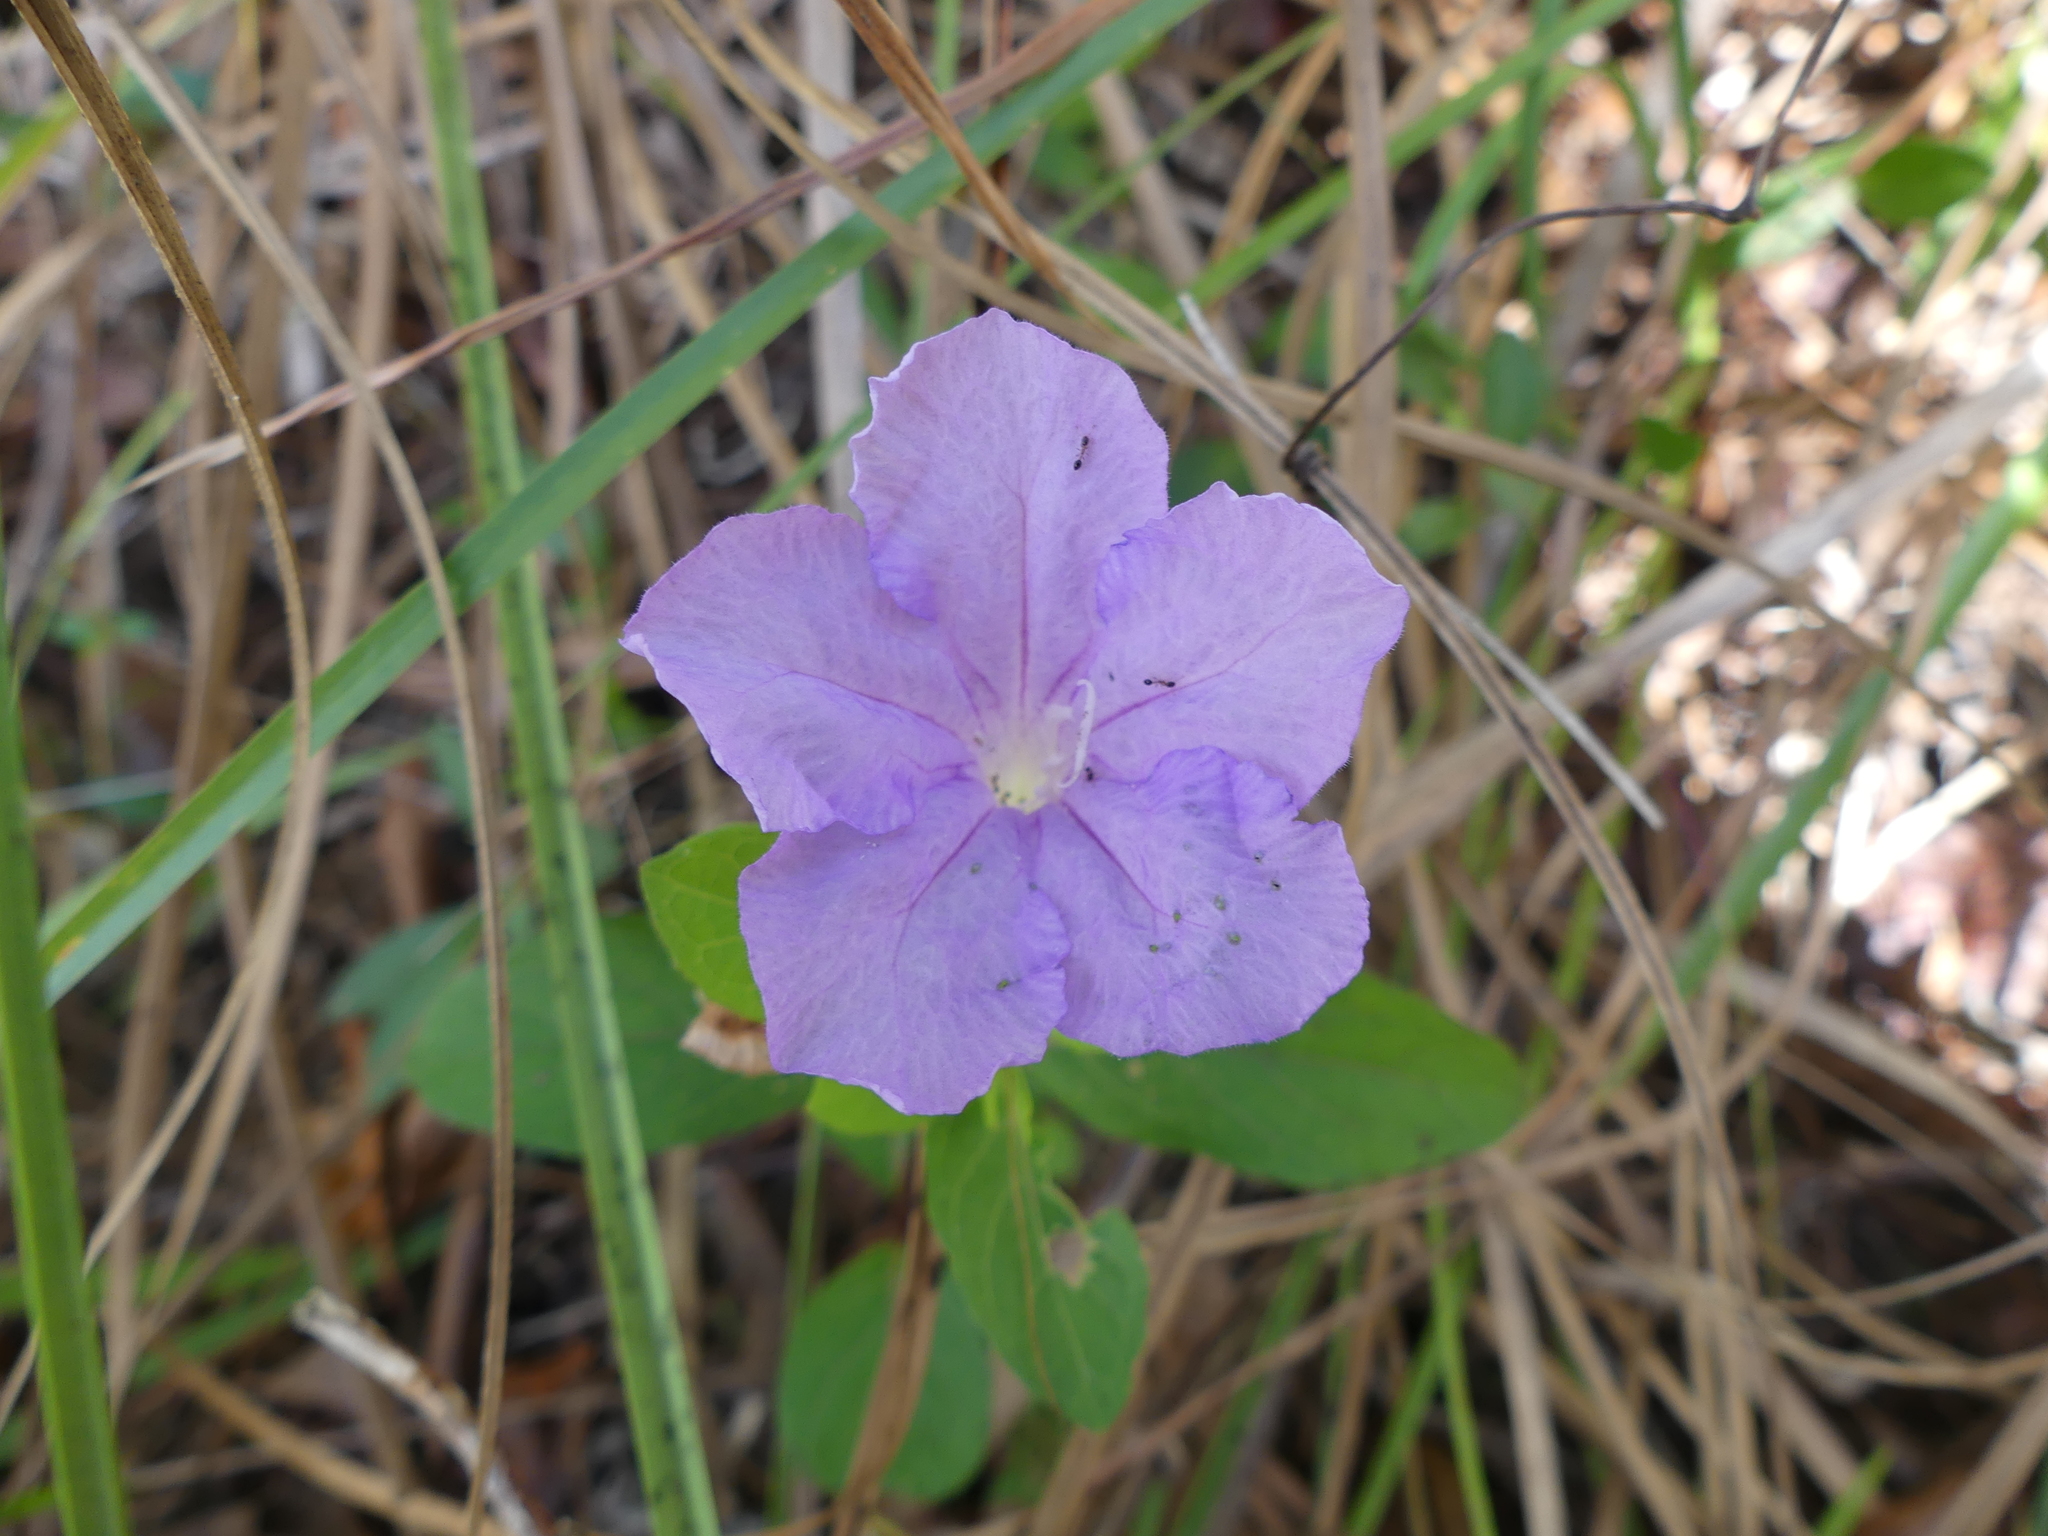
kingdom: Plantae
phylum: Tracheophyta
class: Magnoliopsida
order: Lamiales
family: Acanthaceae
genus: Ruellia
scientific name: Ruellia caroliniensis
